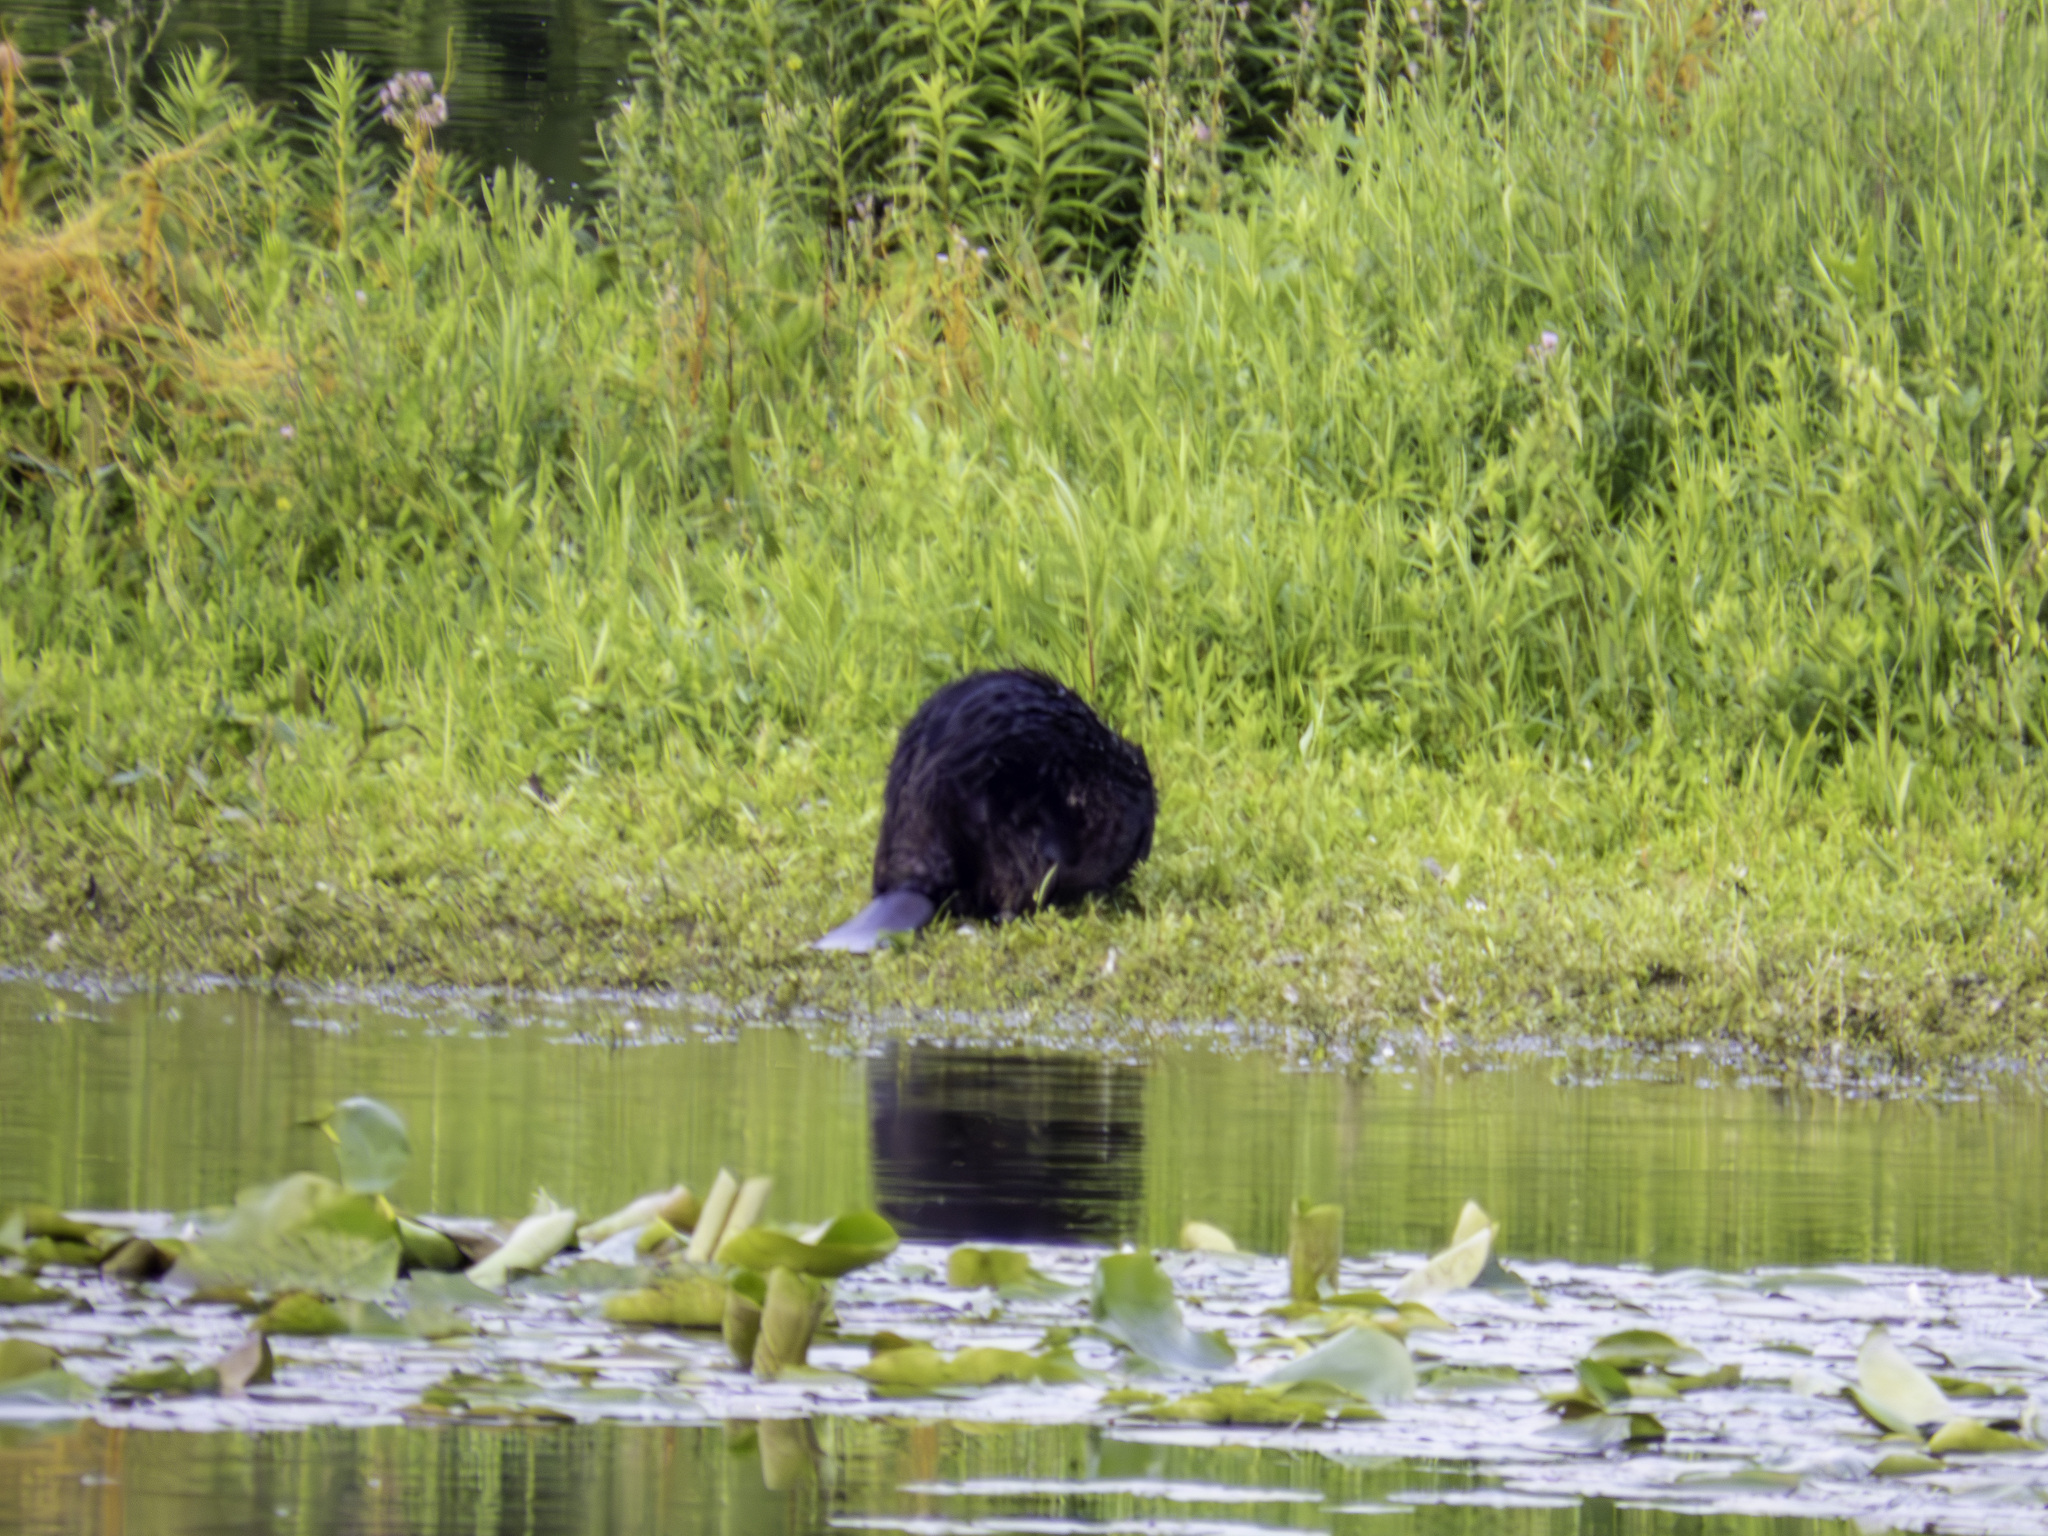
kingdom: Animalia
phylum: Chordata
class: Mammalia
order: Rodentia
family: Castoridae
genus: Castor
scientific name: Castor canadensis
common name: American beaver
